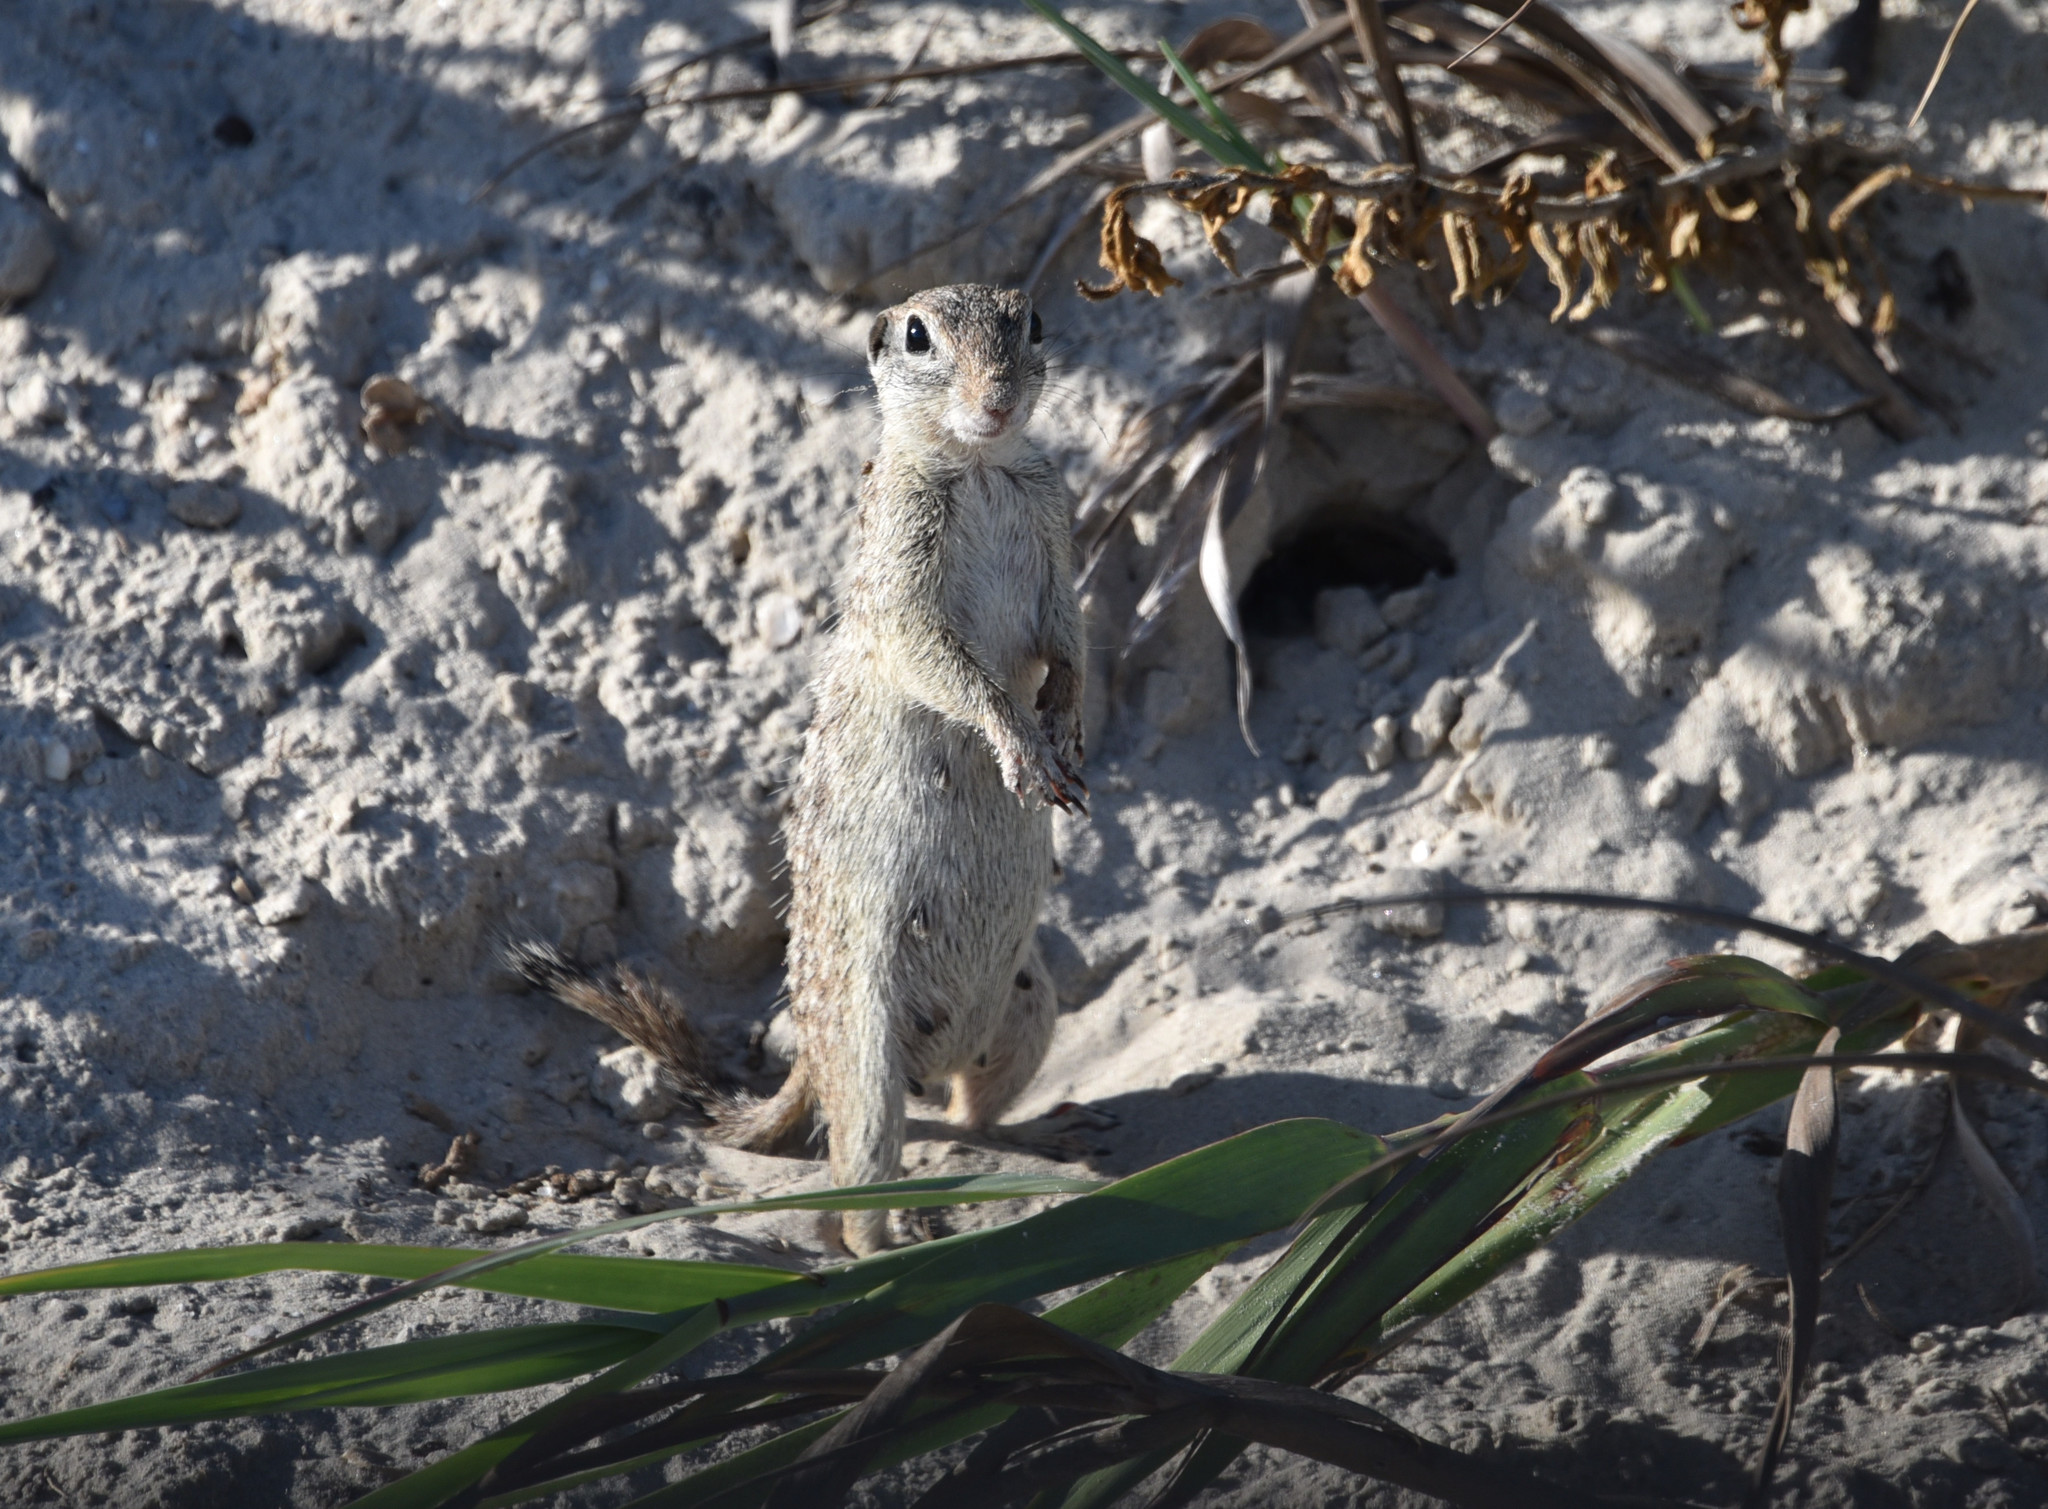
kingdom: Animalia
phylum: Chordata
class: Mammalia
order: Rodentia
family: Sciuridae
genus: Xerospermophilus
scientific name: Xerospermophilus spilosoma
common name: Spotted ground squirrel
